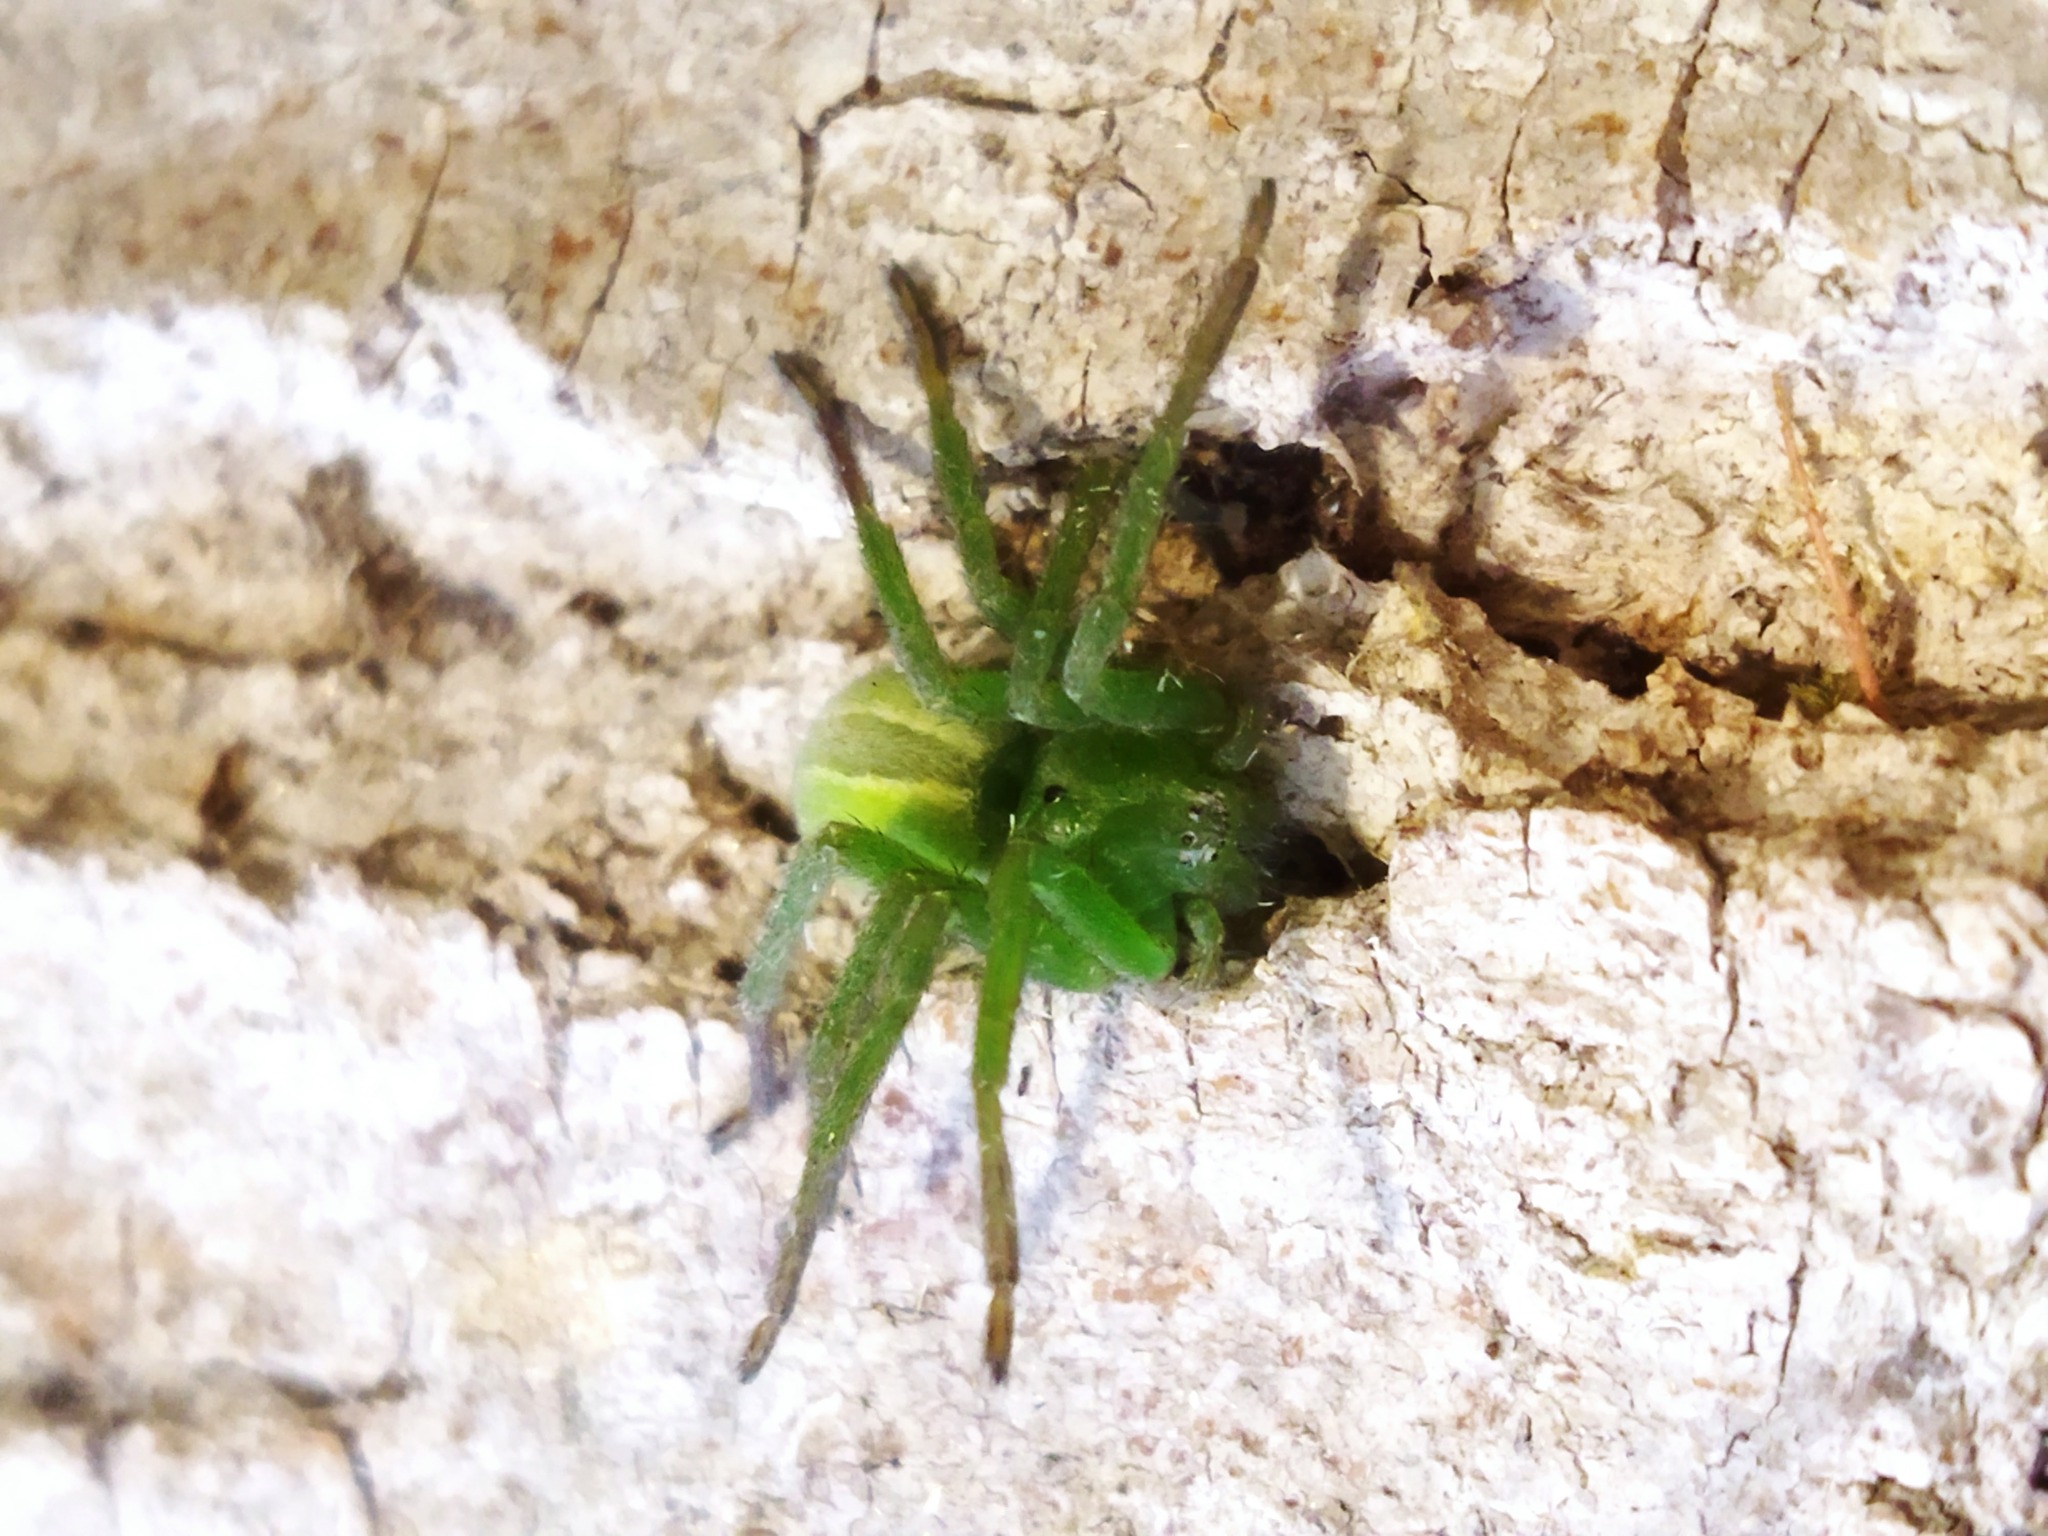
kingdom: Animalia
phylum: Arthropoda
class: Arachnida
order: Araneae
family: Sparassidae
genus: Micrommata
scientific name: Micrommata ligurina
